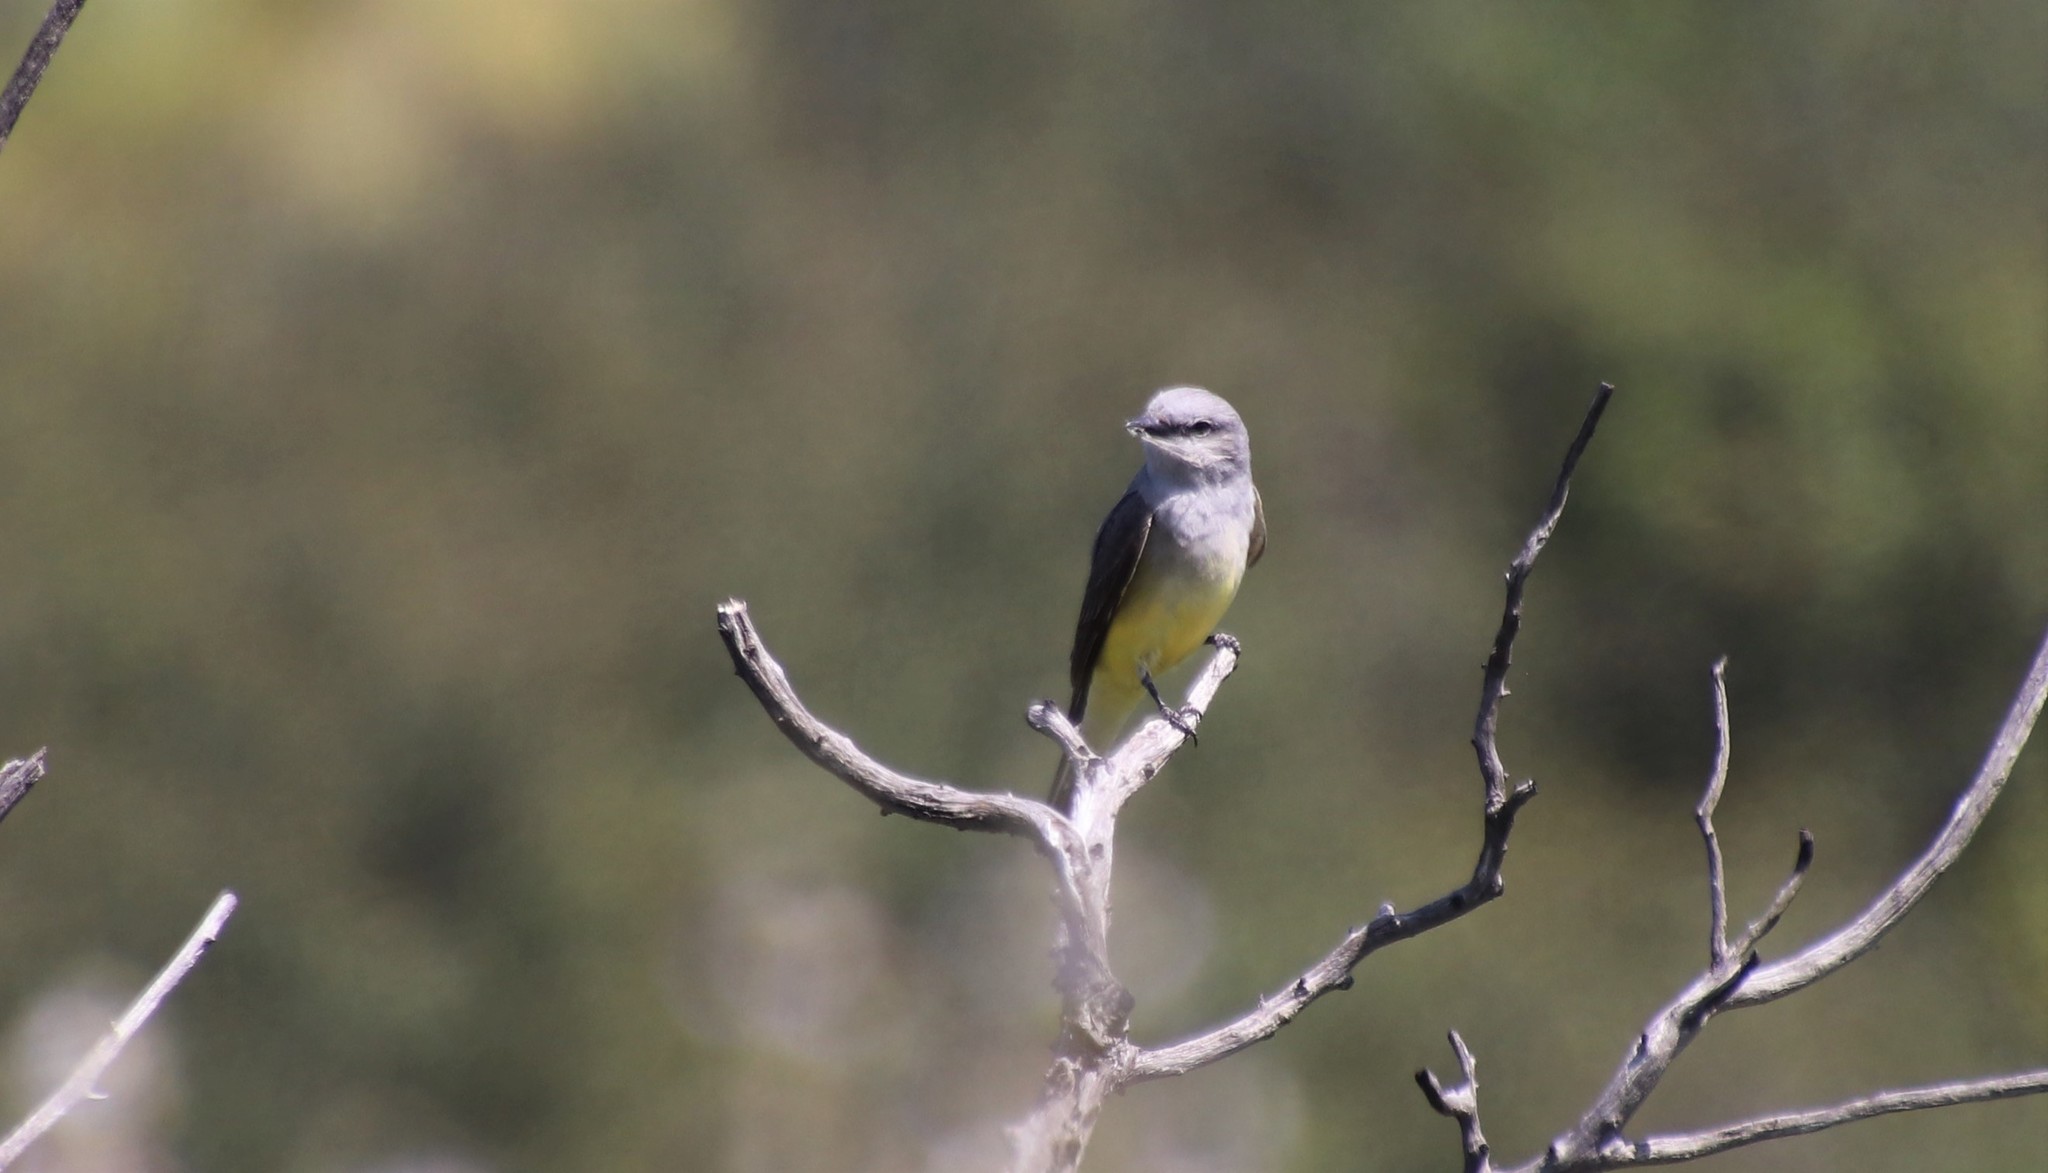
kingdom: Animalia
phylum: Chordata
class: Aves
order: Passeriformes
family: Tyrannidae
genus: Tyrannus
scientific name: Tyrannus verticalis
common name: Western kingbird
